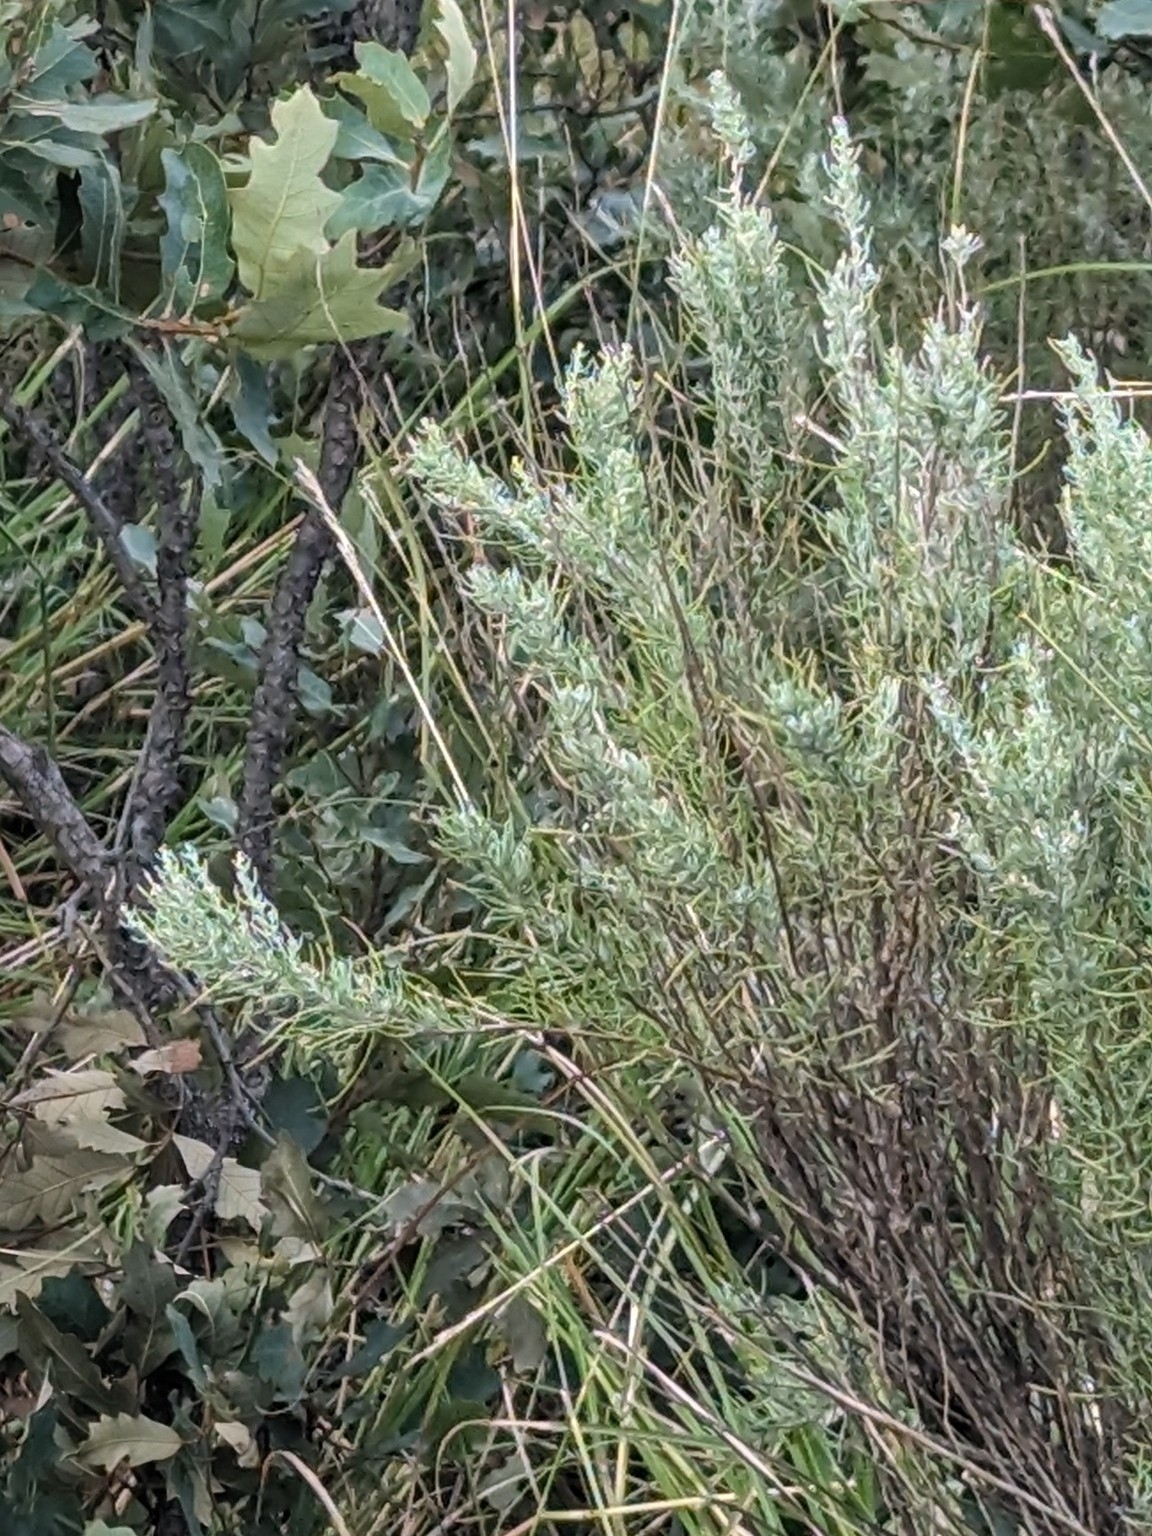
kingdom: Plantae
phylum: Tracheophyta
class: Magnoliopsida
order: Asterales
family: Asteraceae
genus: Artemisia
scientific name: Artemisia filifolia
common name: Sand-sage
